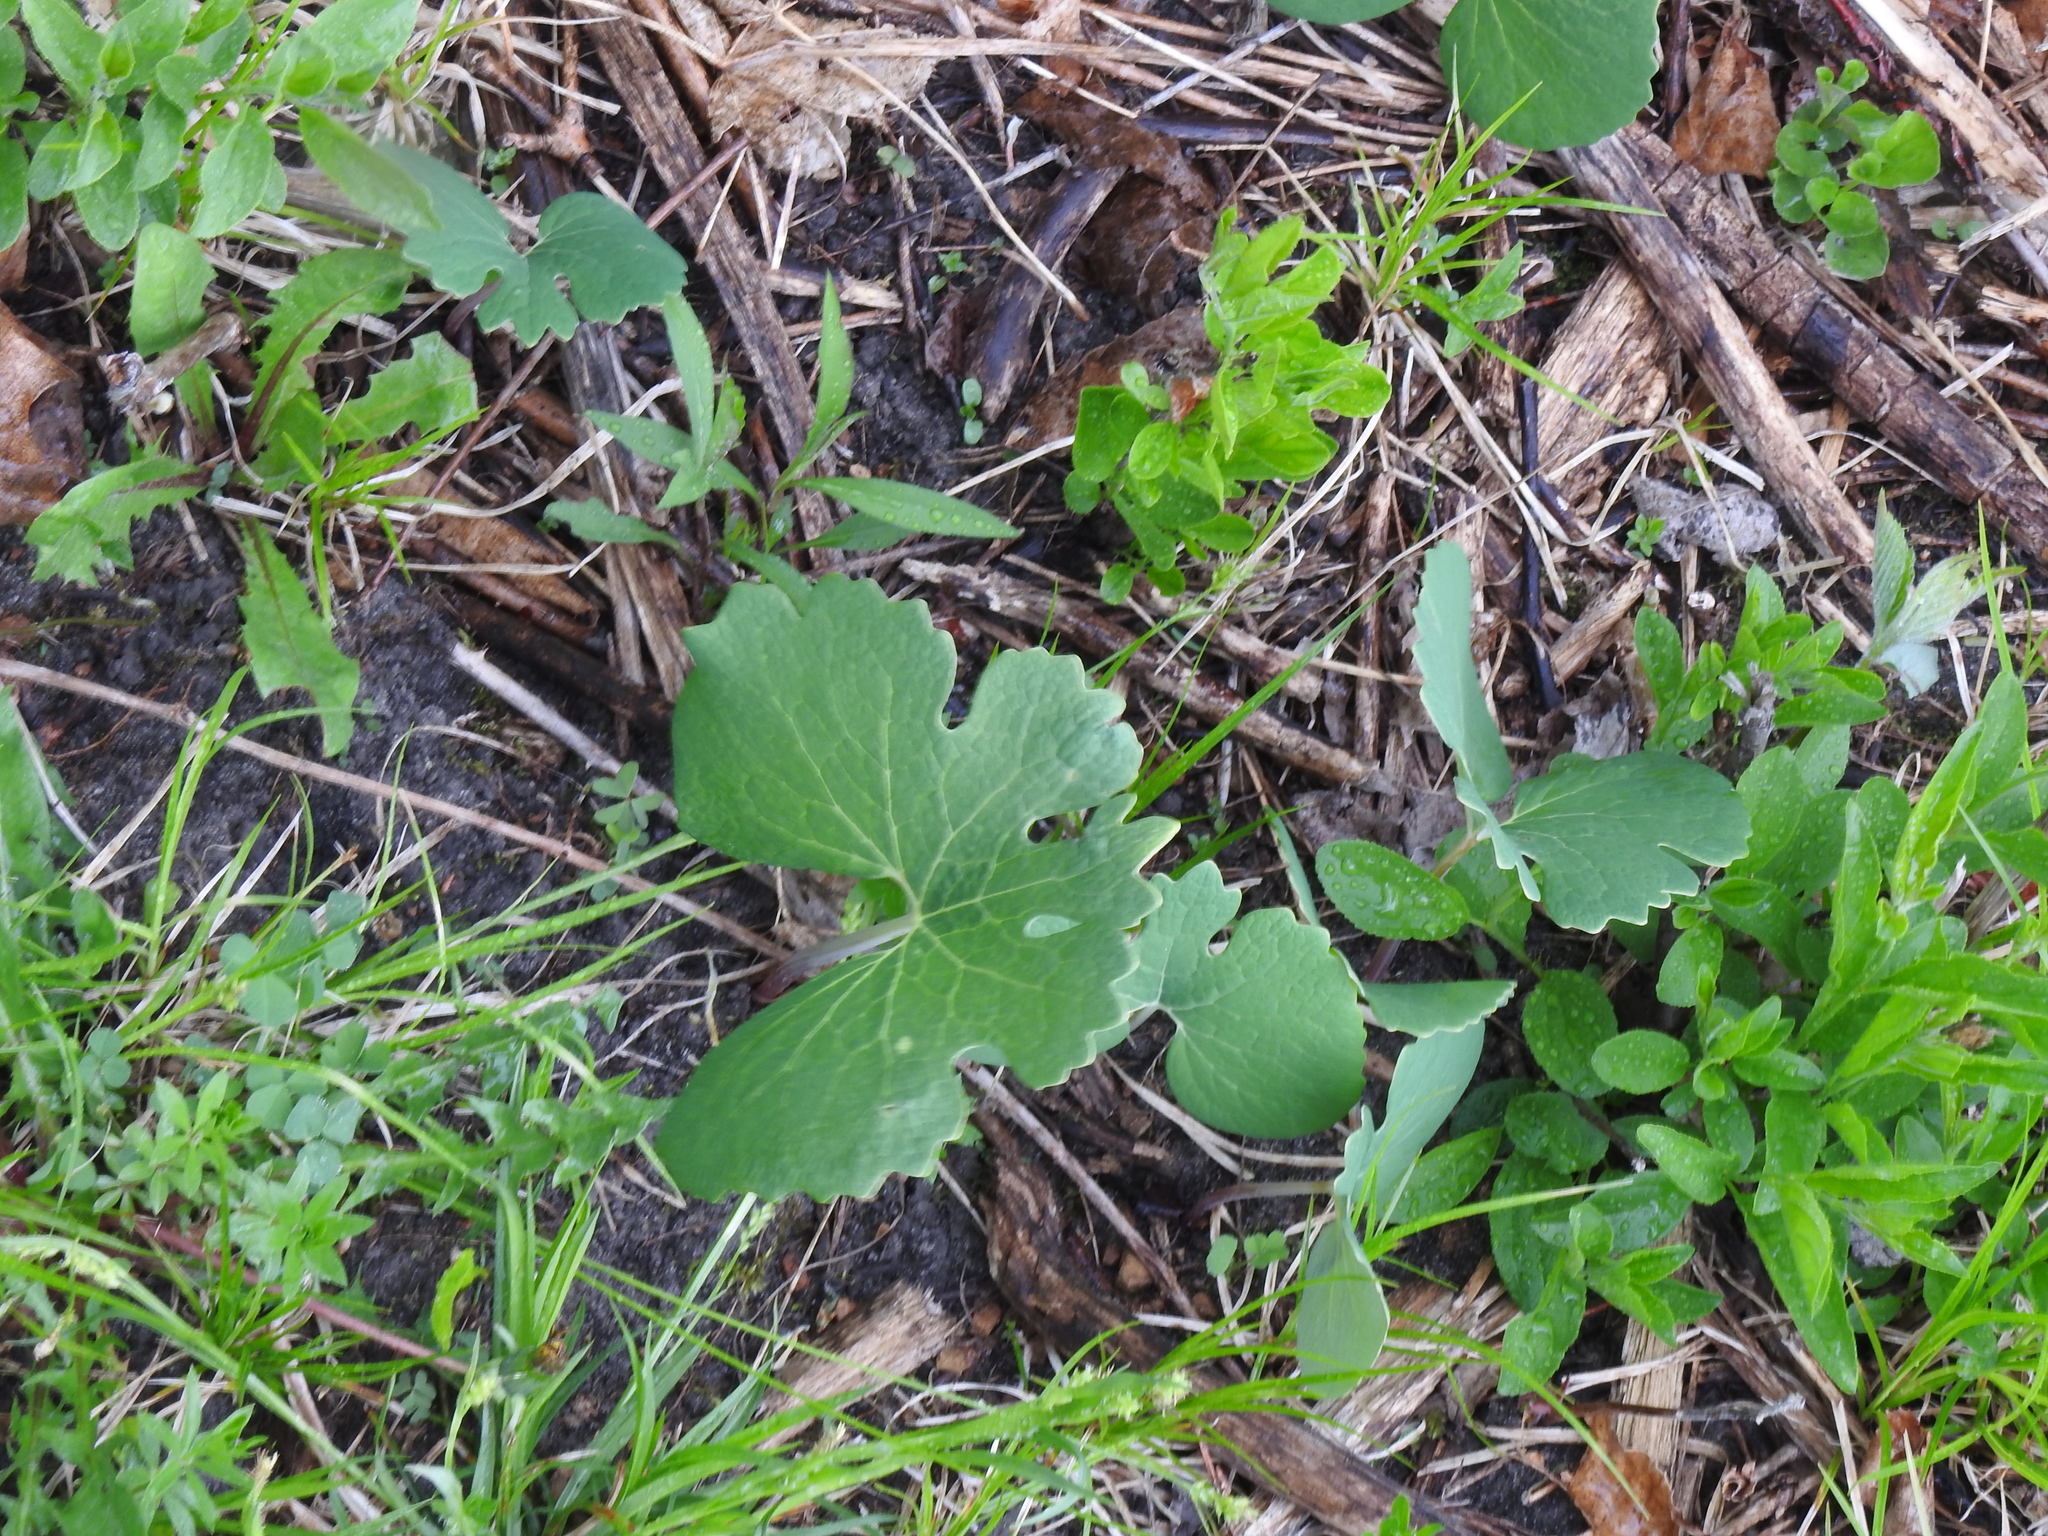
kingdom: Plantae
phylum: Tracheophyta
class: Magnoliopsida
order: Ranunculales
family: Papaveraceae
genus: Sanguinaria
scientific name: Sanguinaria canadensis
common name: Bloodroot
